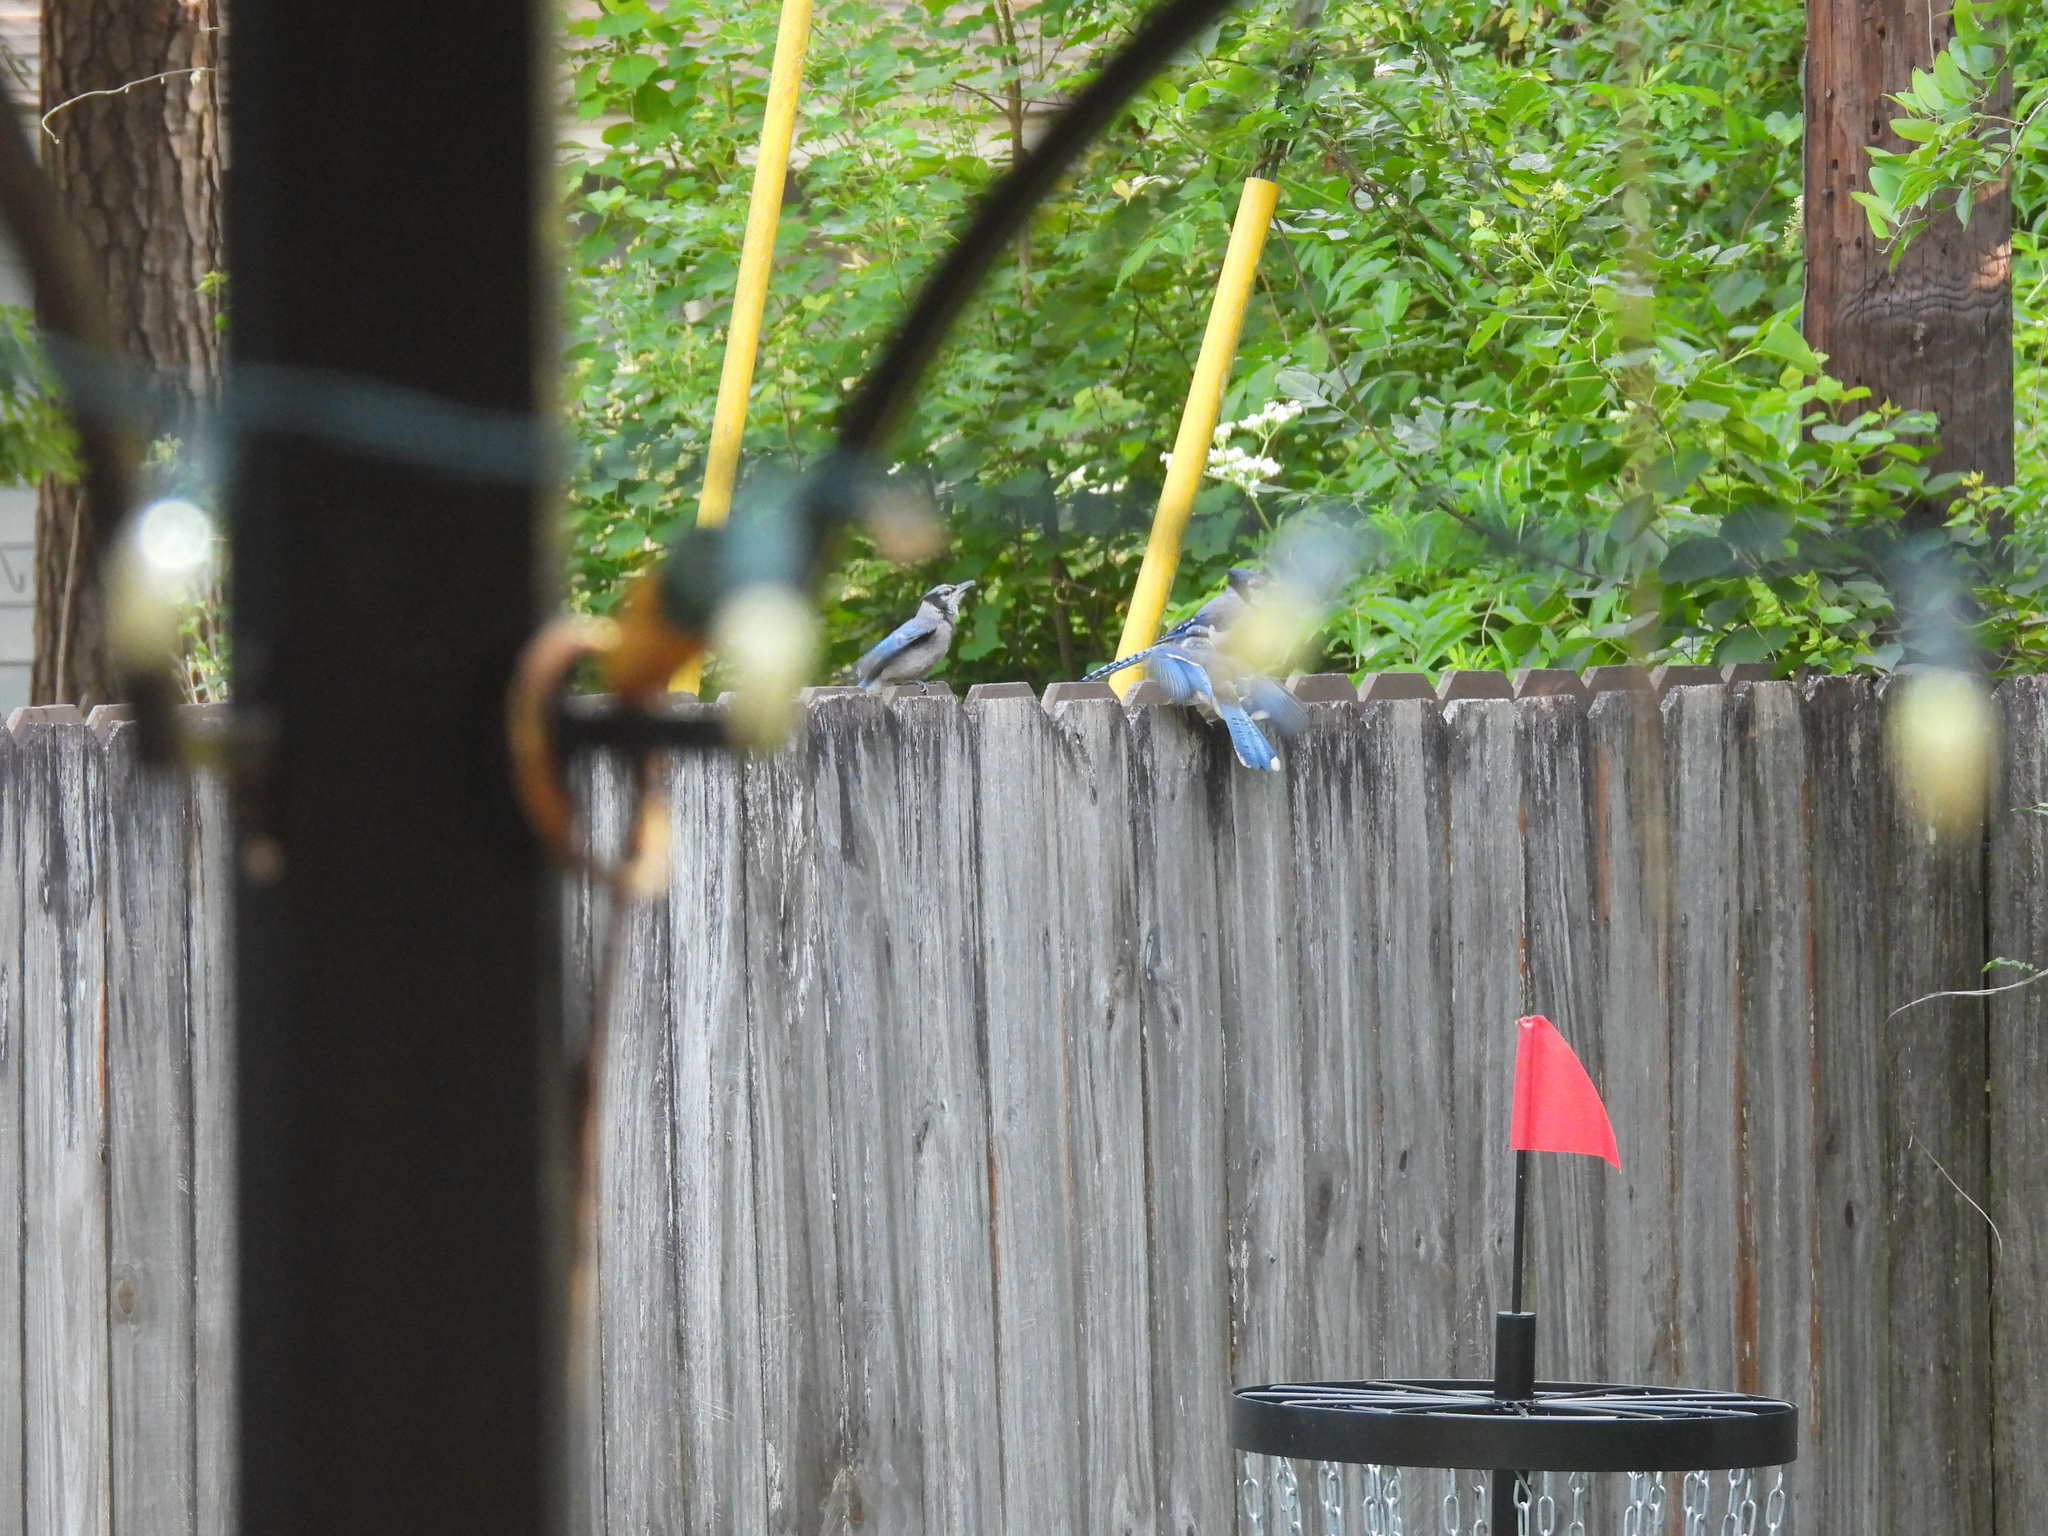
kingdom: Animalia
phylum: Chordata
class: Aves
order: Passeriformes
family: Corvidae
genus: Cyanocitta
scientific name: Cyanocitta cristata
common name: Blue jay
